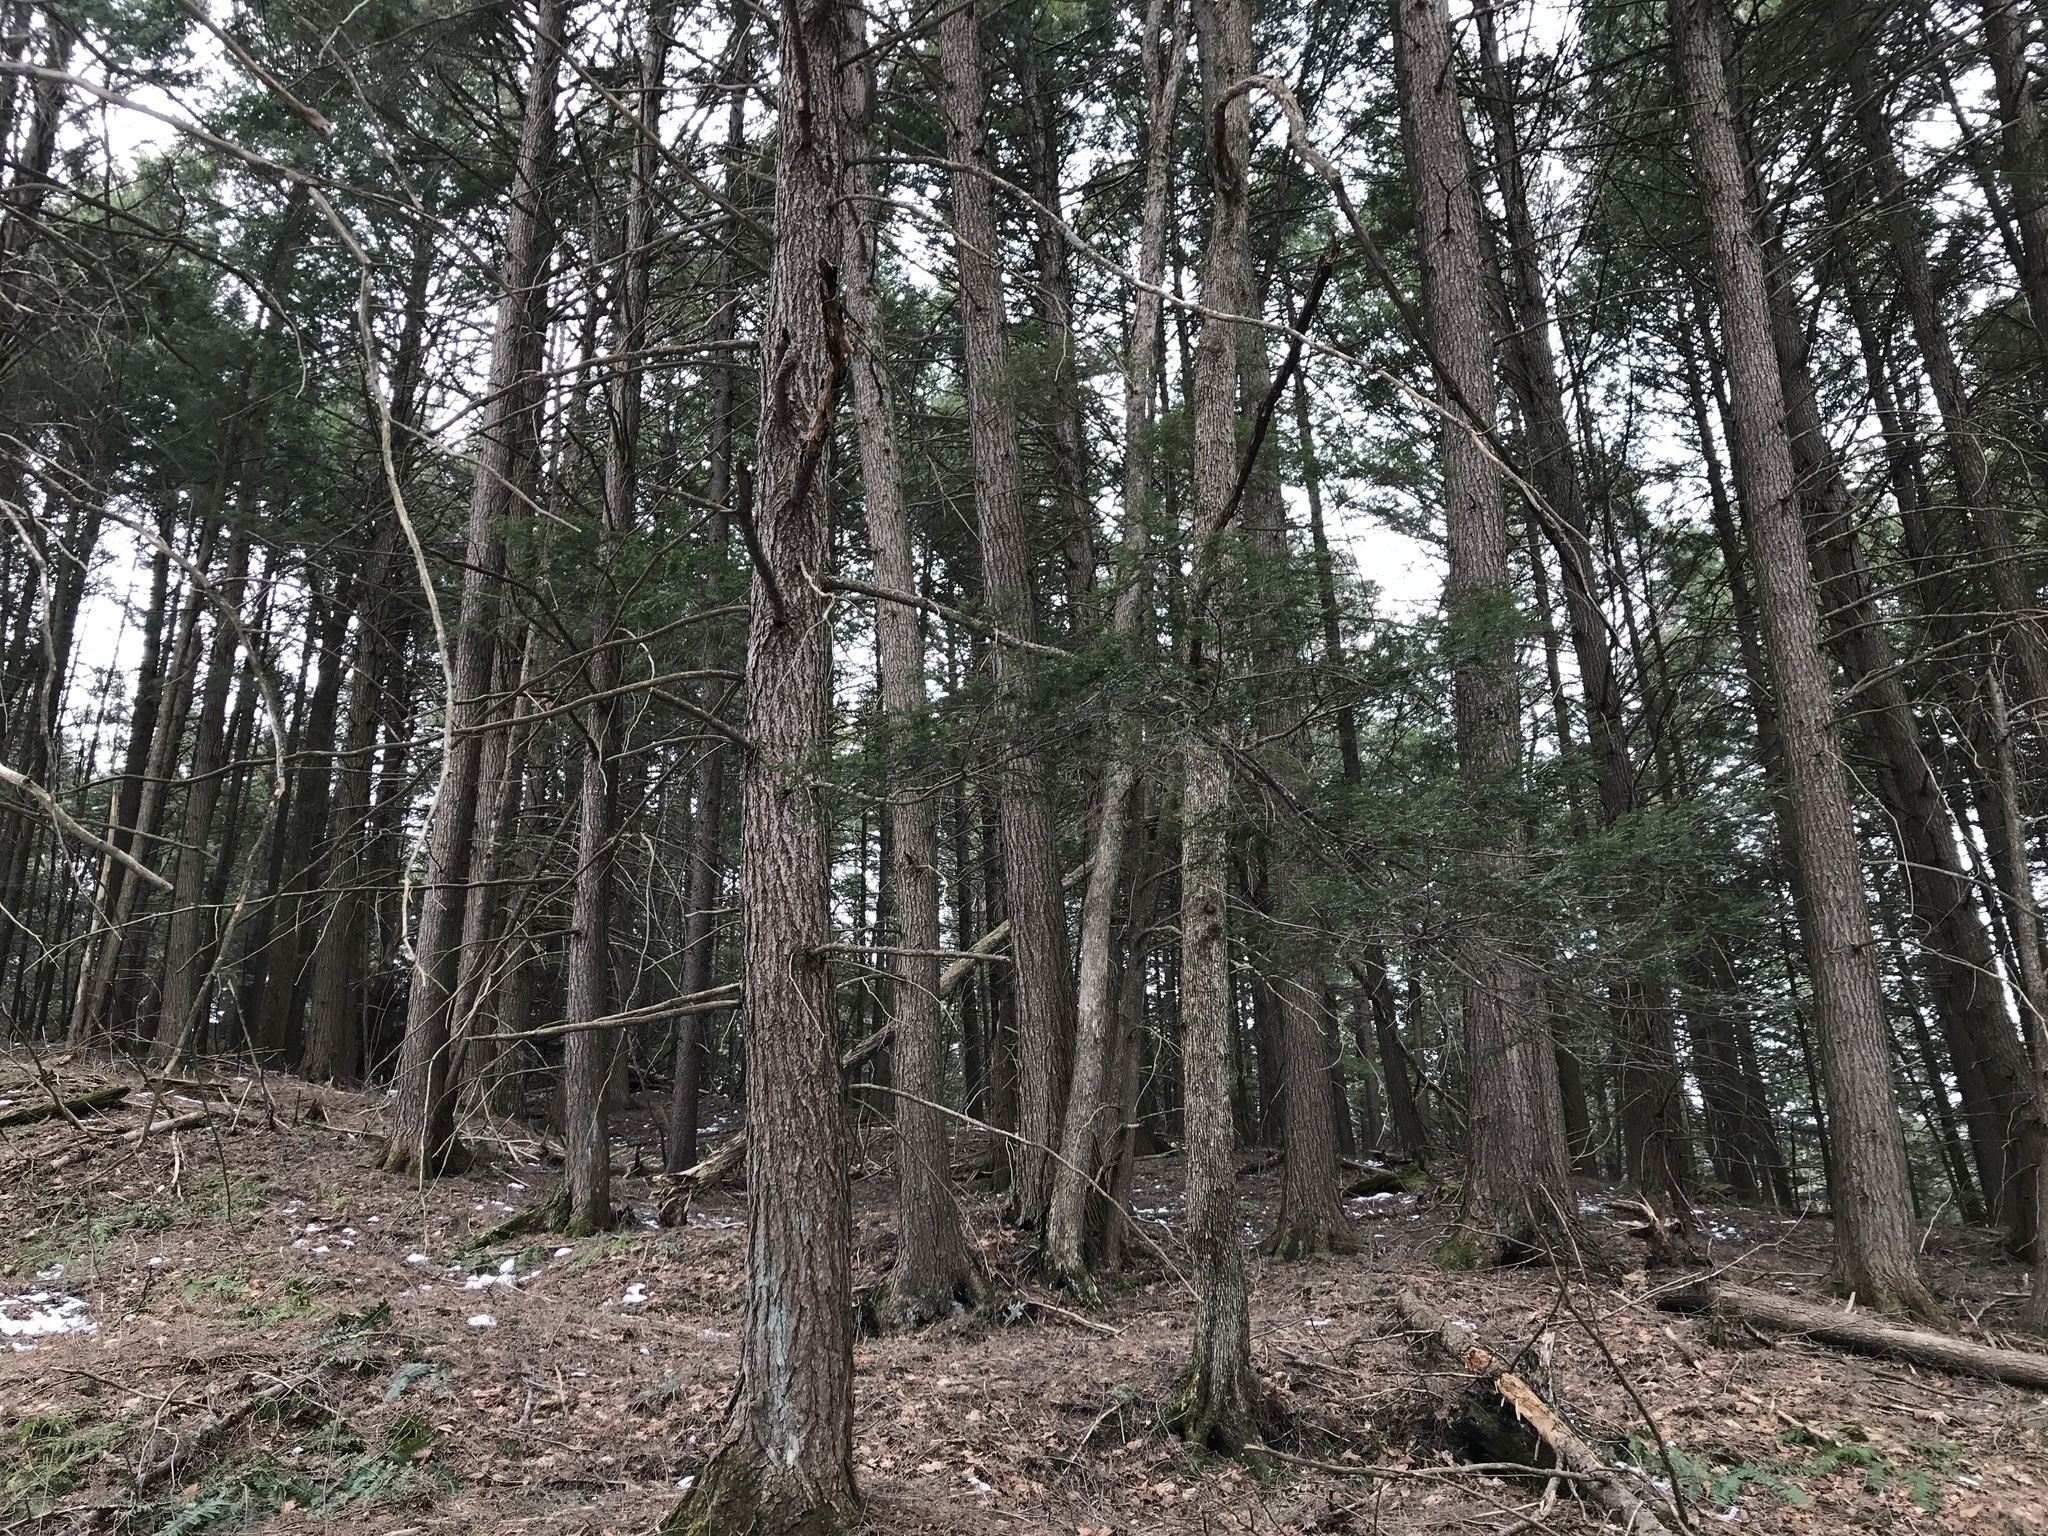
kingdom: Plantae
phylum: Tracheophyta
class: Pinopsida
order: Pinales
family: Pinaceae
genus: Tsuga
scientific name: Tsuga canadensis
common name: Eastern hemlock
